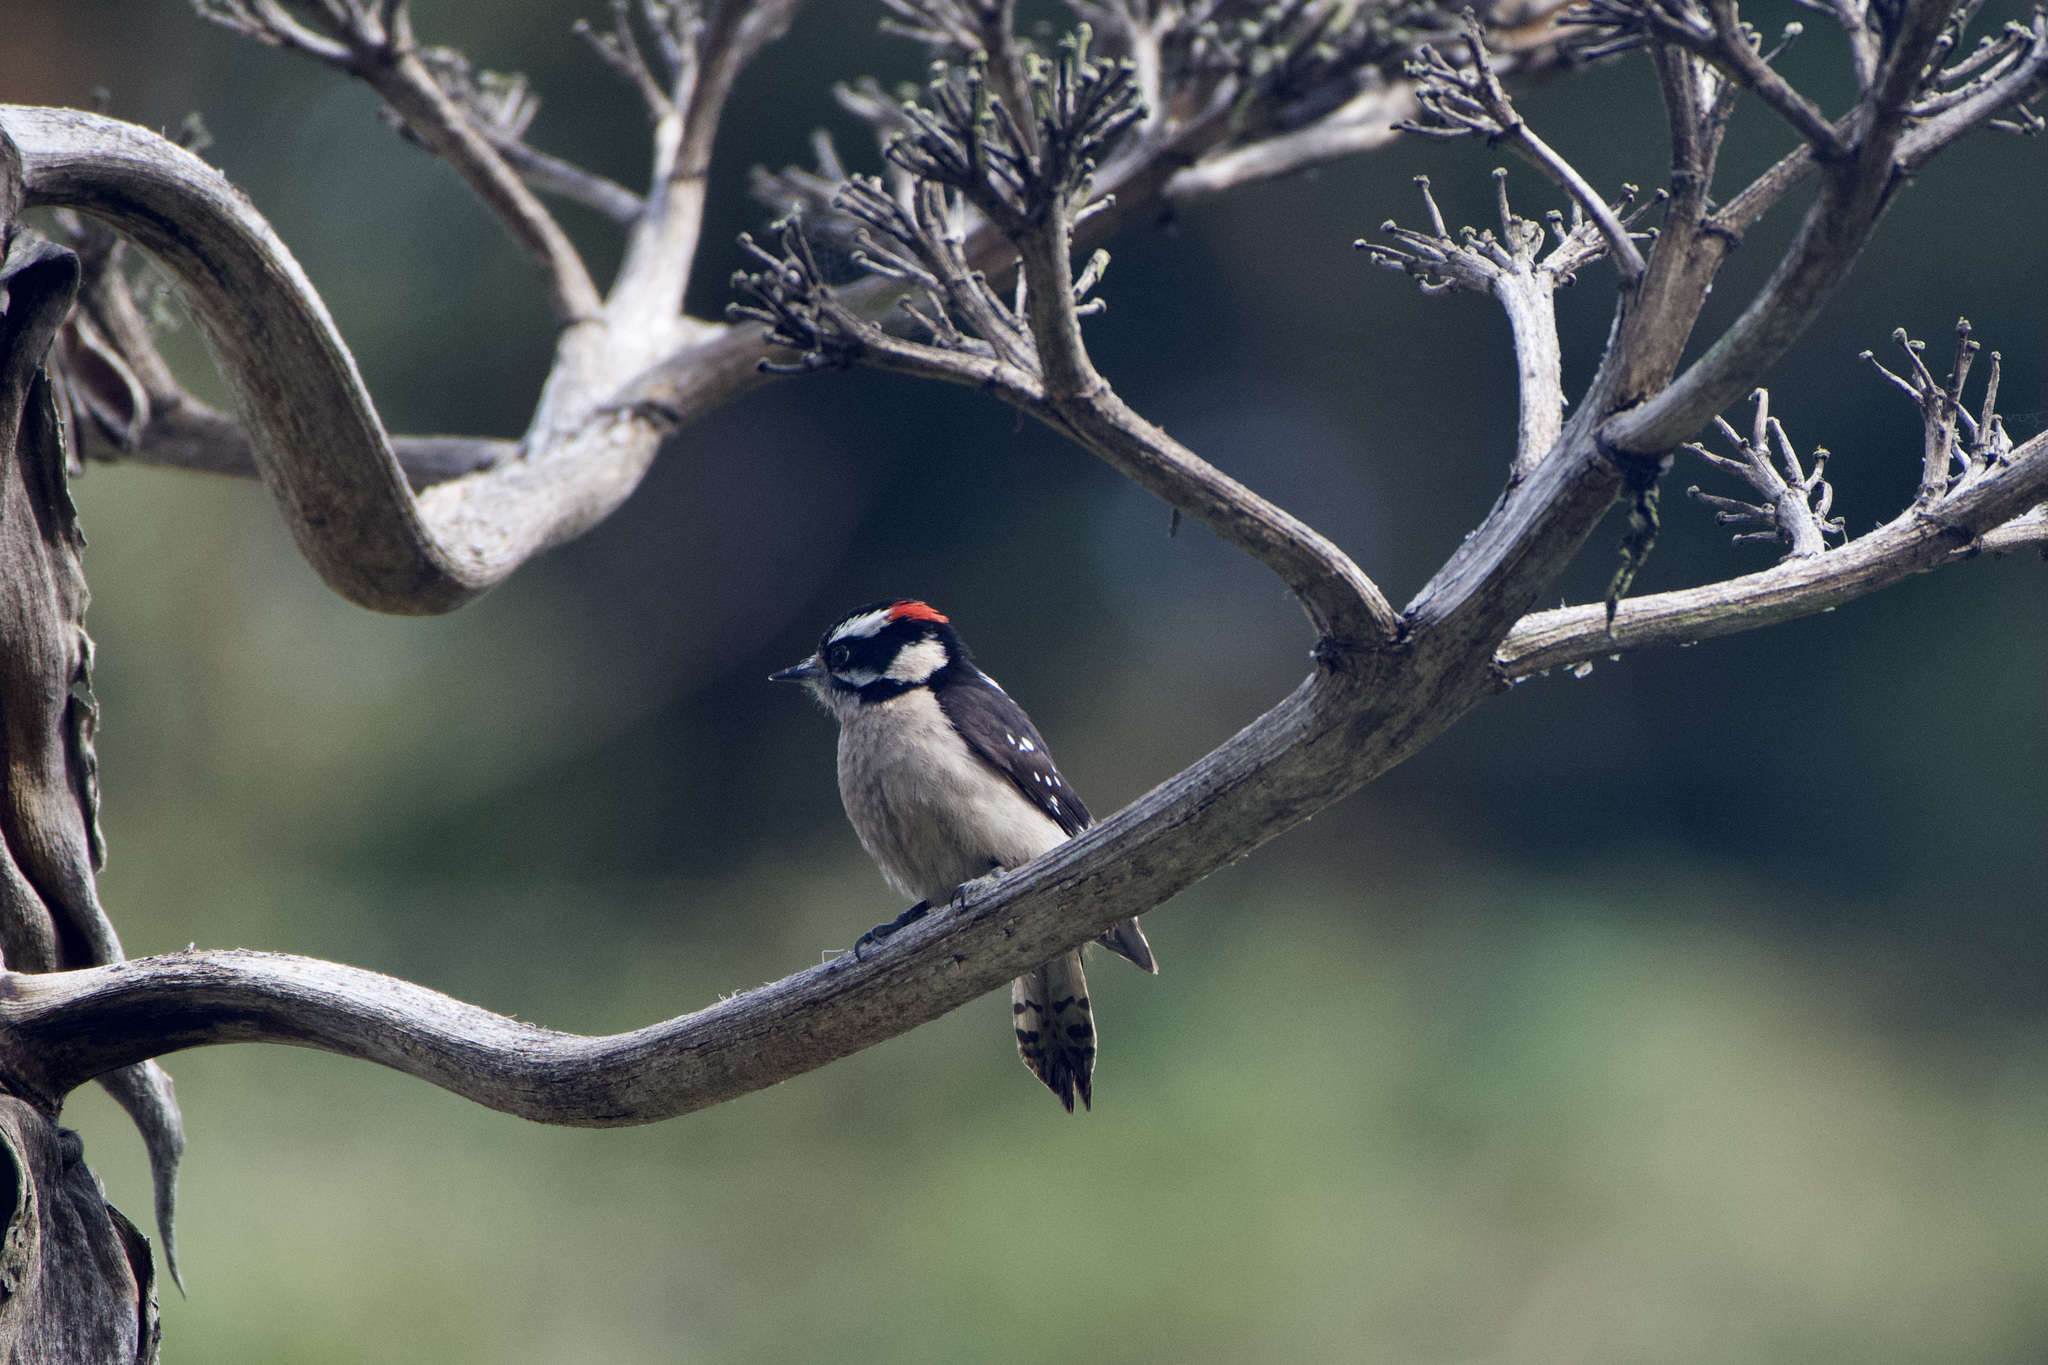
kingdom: Animalia
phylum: Chordata
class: Aves
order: Piciformes
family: Picidae
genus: Dryobates
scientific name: Dryobates pubescens
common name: Downy woodpecker
